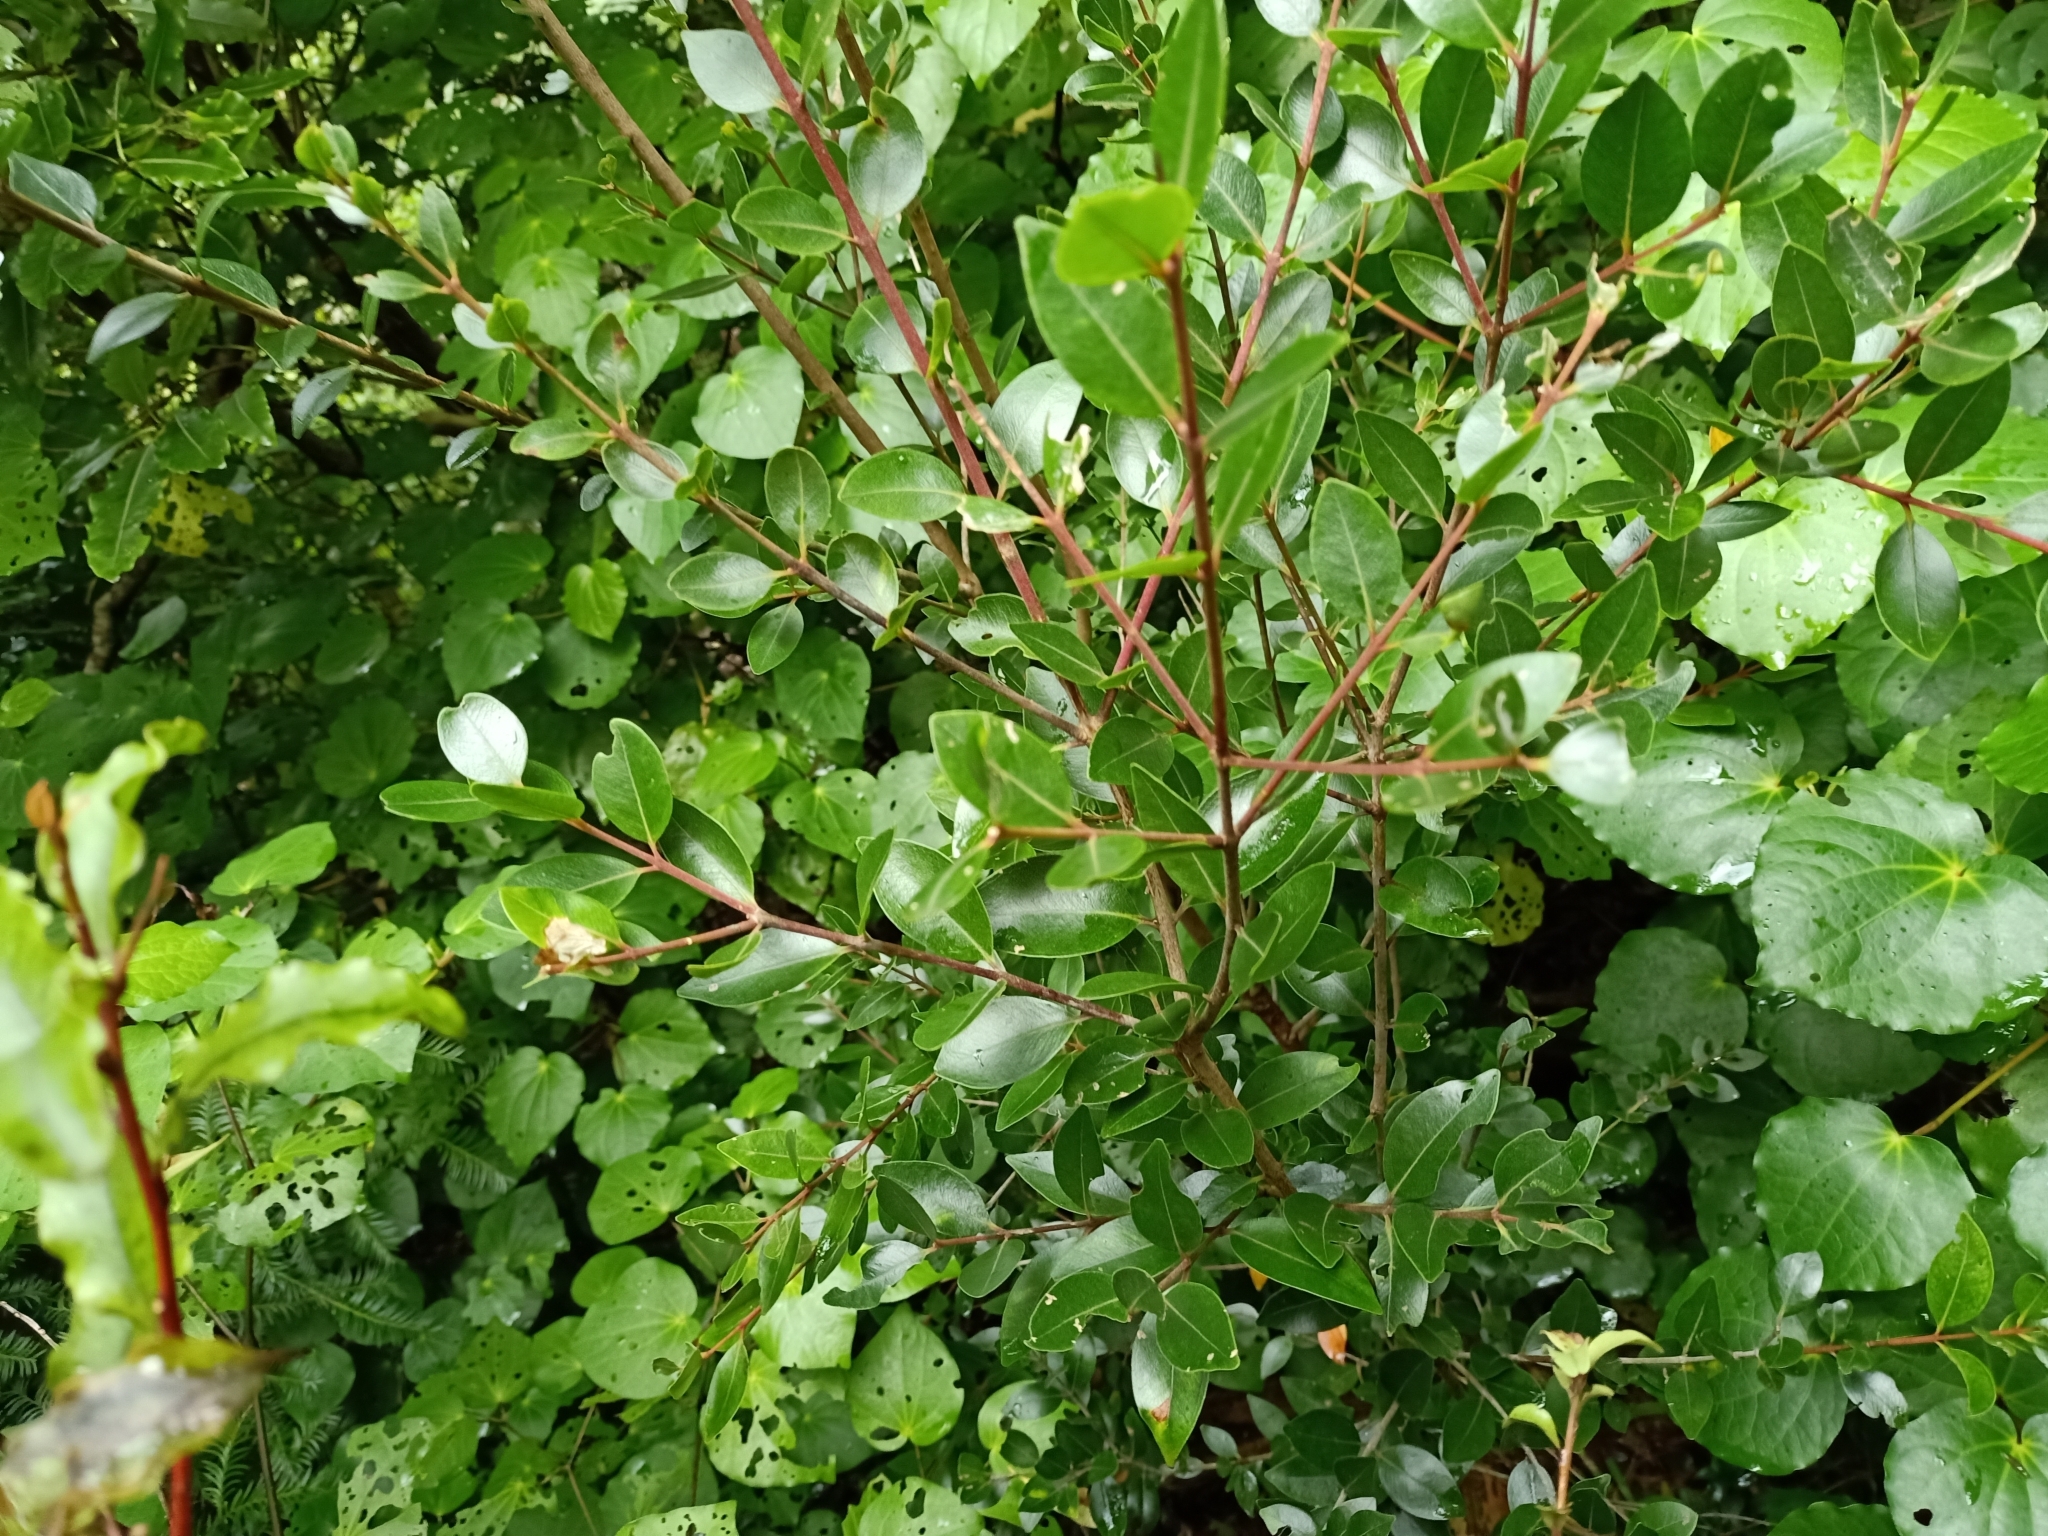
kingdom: Plantae
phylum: Tracheophyta
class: Magnoliopsida
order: Myrtales
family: Myrtaceae
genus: Metrosideros
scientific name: Metrosideros robusta
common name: Northern rata
